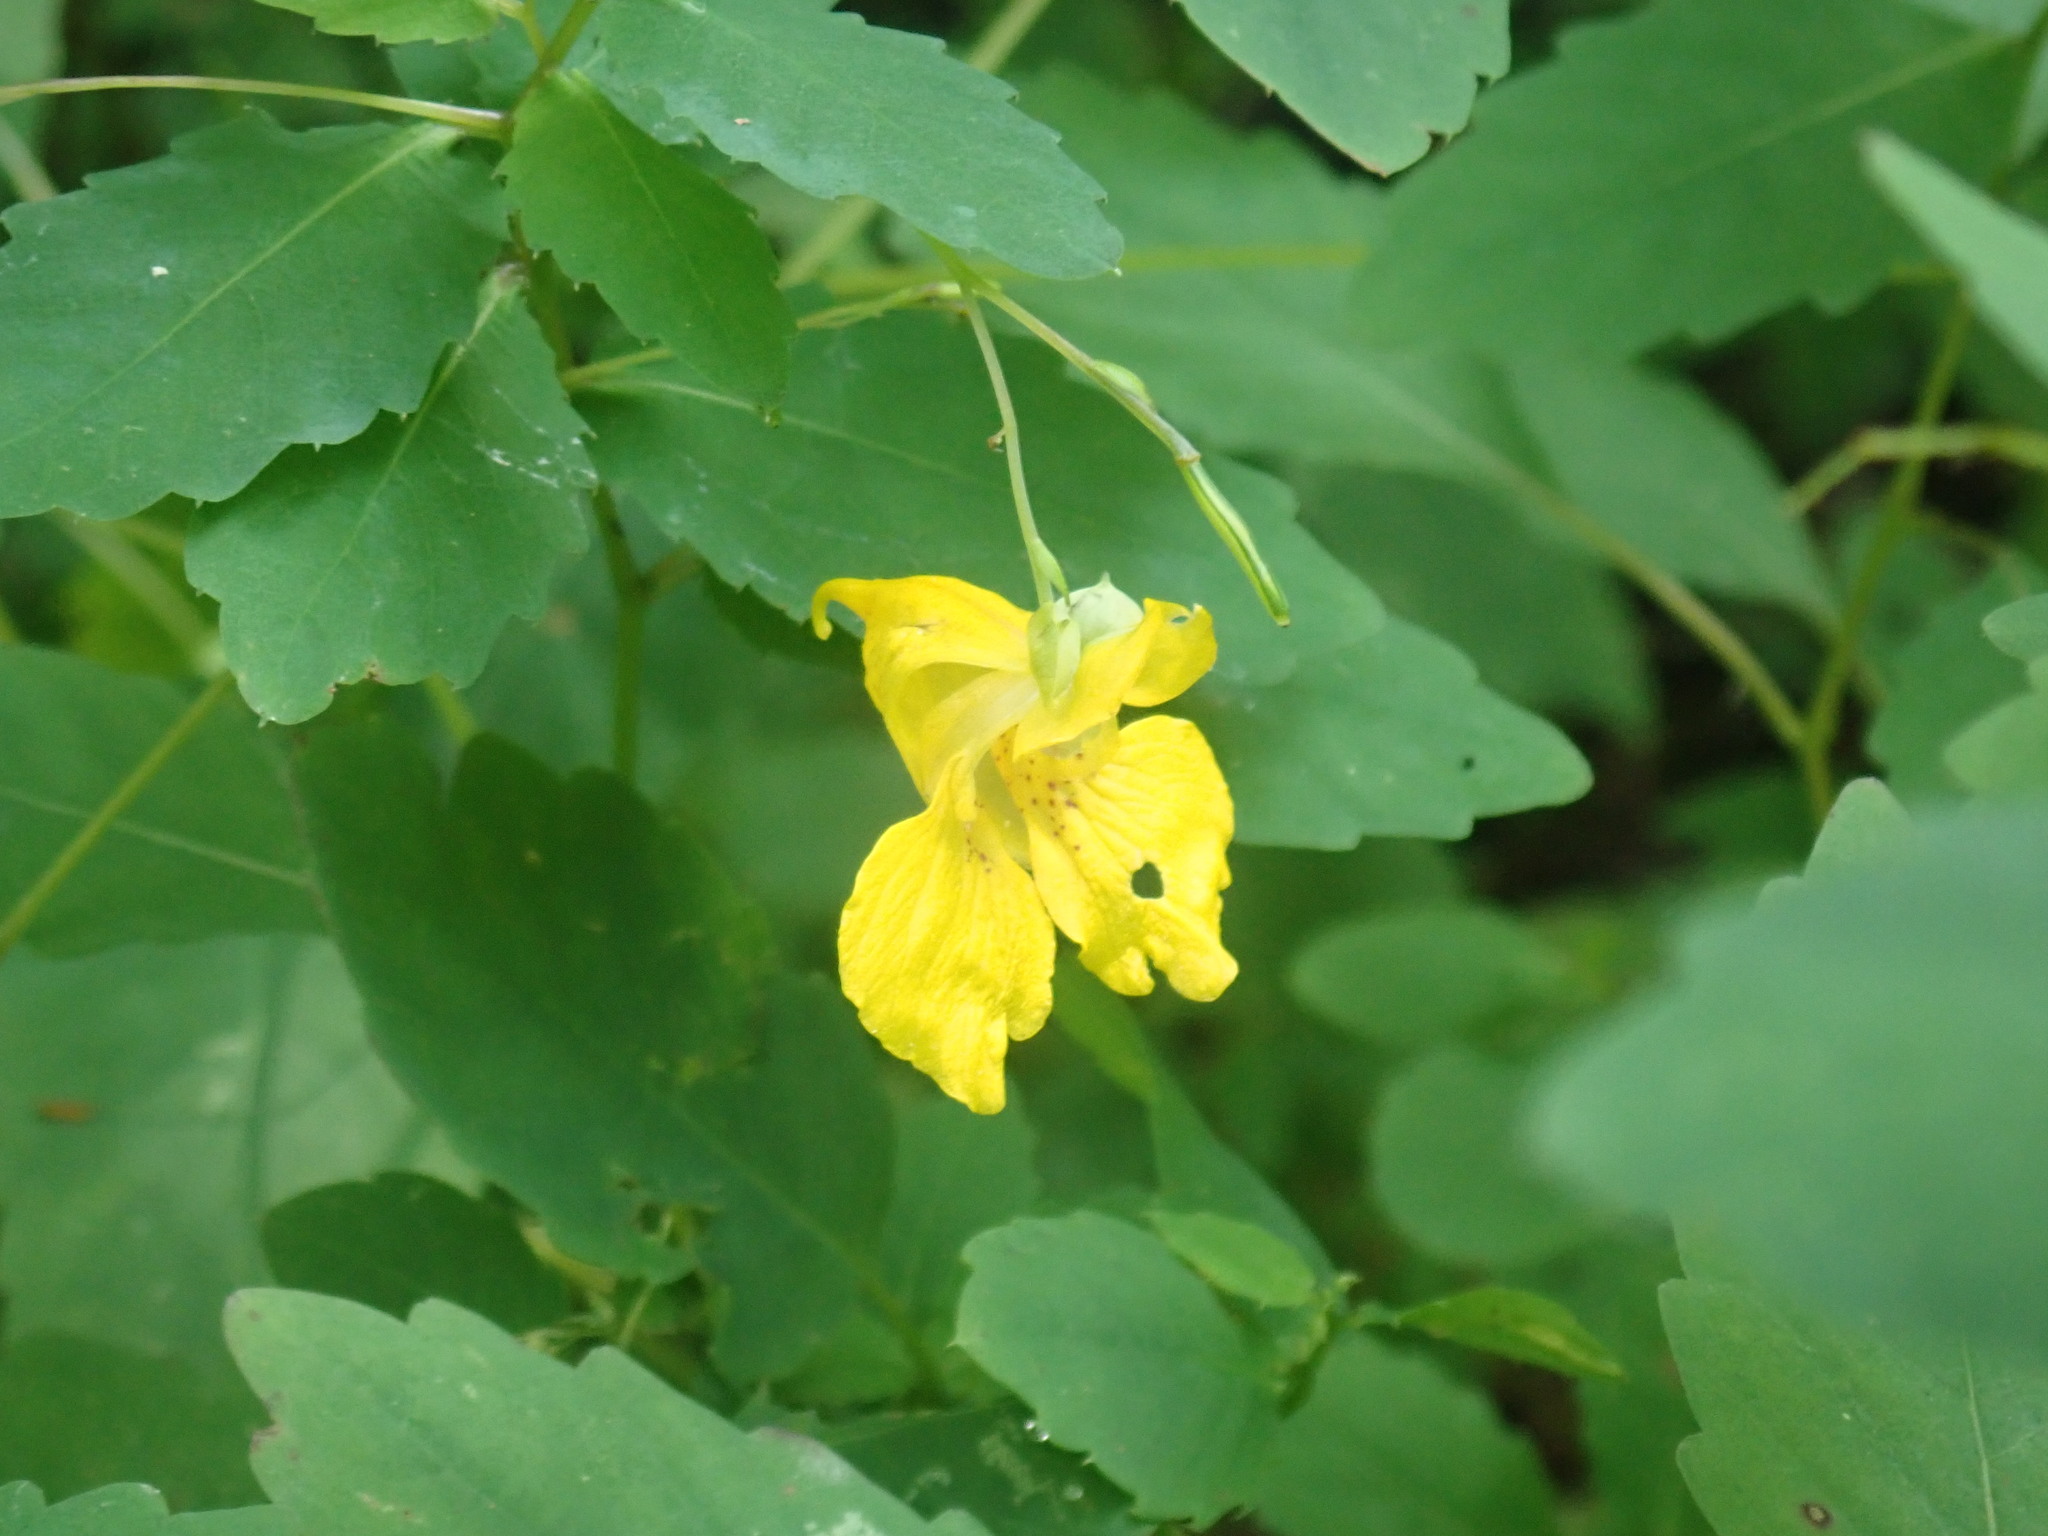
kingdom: Plantae
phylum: Tracheophyta
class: Magnoliopsida
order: Ericales
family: Balsaminaceae
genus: Impatiens
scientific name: Impatiens pallida
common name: Pale snapweed
